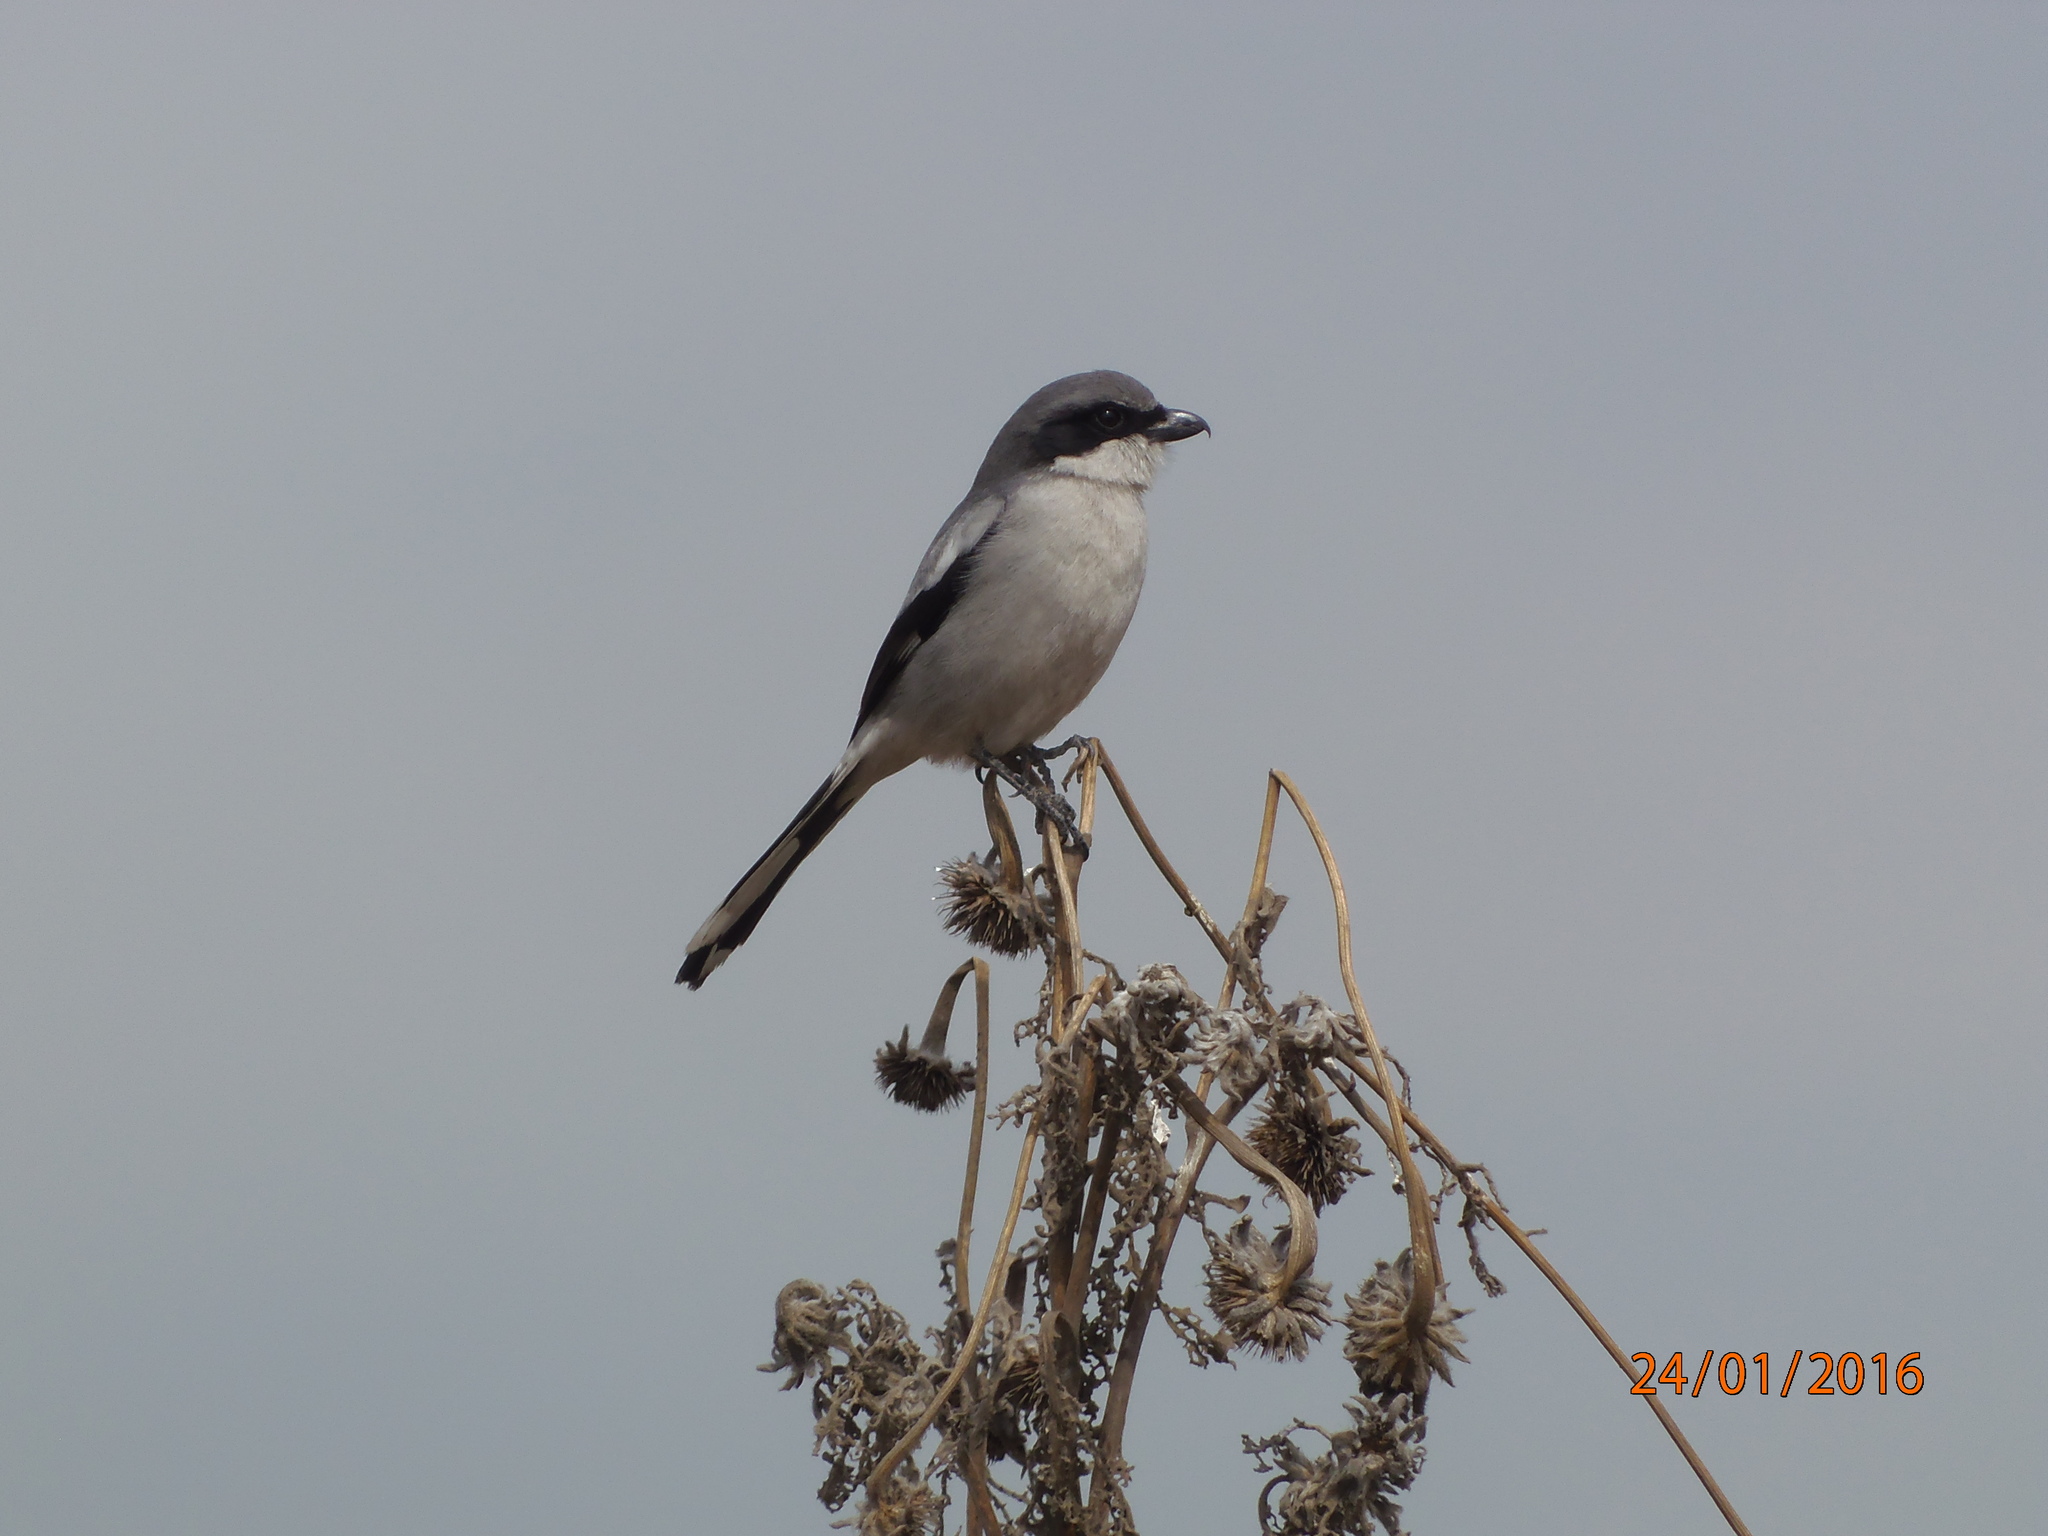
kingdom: Animalia
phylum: Chordata
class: Aves
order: Passeriformes
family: Laniidae
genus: Lanius
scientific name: Lanius ludovicianus
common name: Loggerhead shrike
